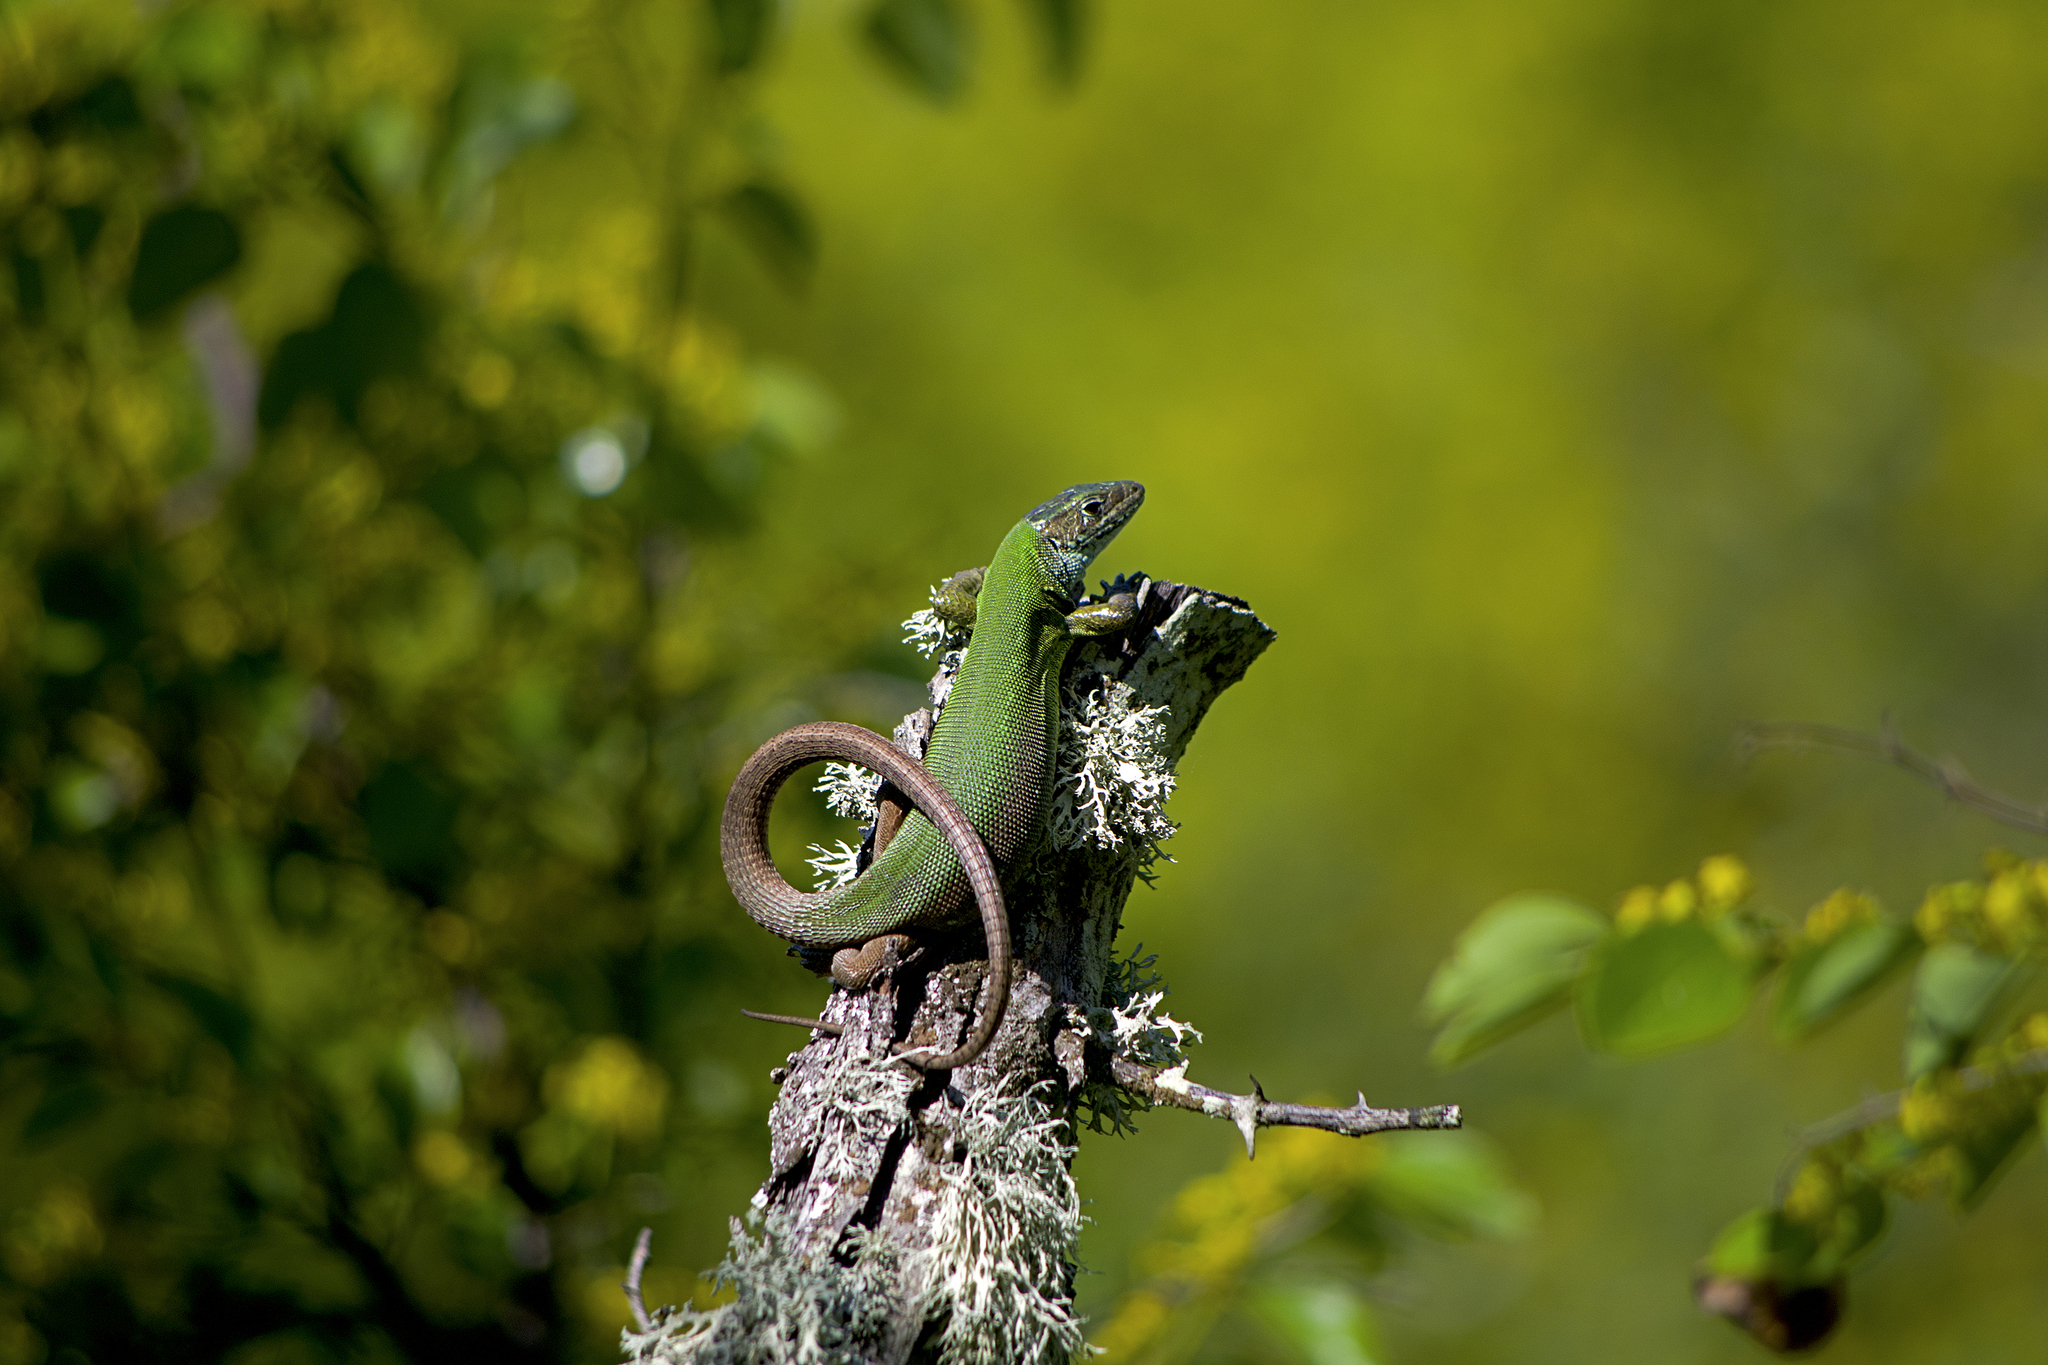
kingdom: Animalia
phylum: Chordata
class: Squamata
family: Lacertidae
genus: Lacerta
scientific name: Lacerta viridis
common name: European green lizard
